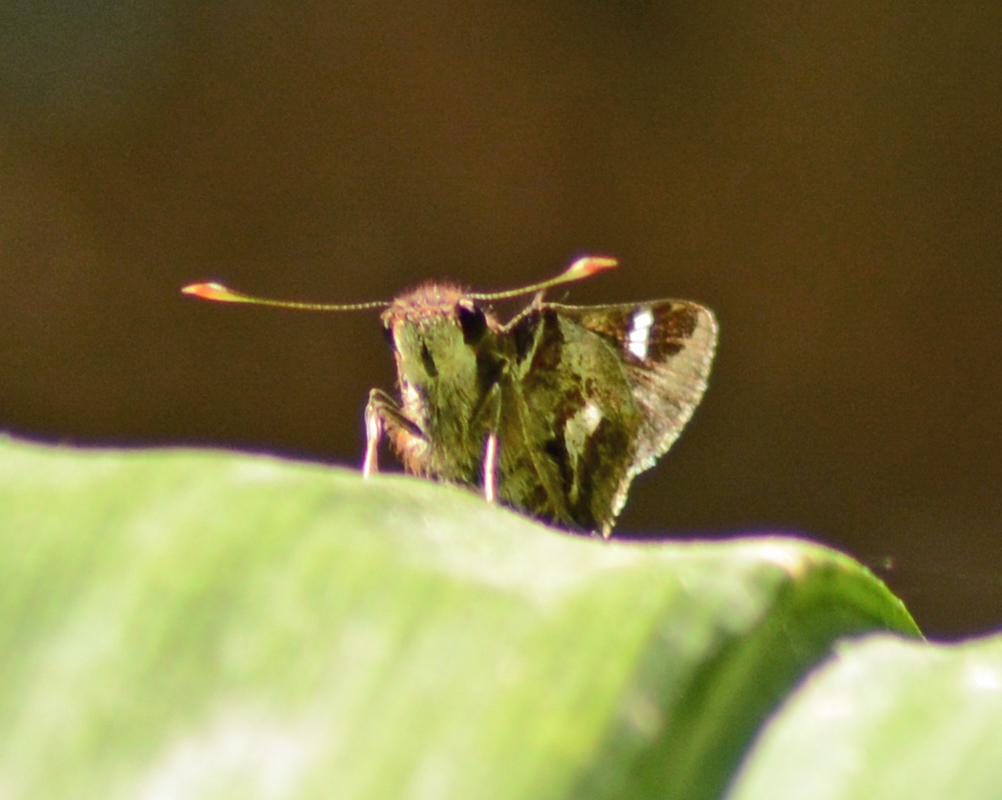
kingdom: Animalia
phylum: Arthropoda
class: Insecta
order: Lepidoptera
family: Hesperiidae
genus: Thespieus
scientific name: Thespieus macareus
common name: Chestnut-marked skipper
